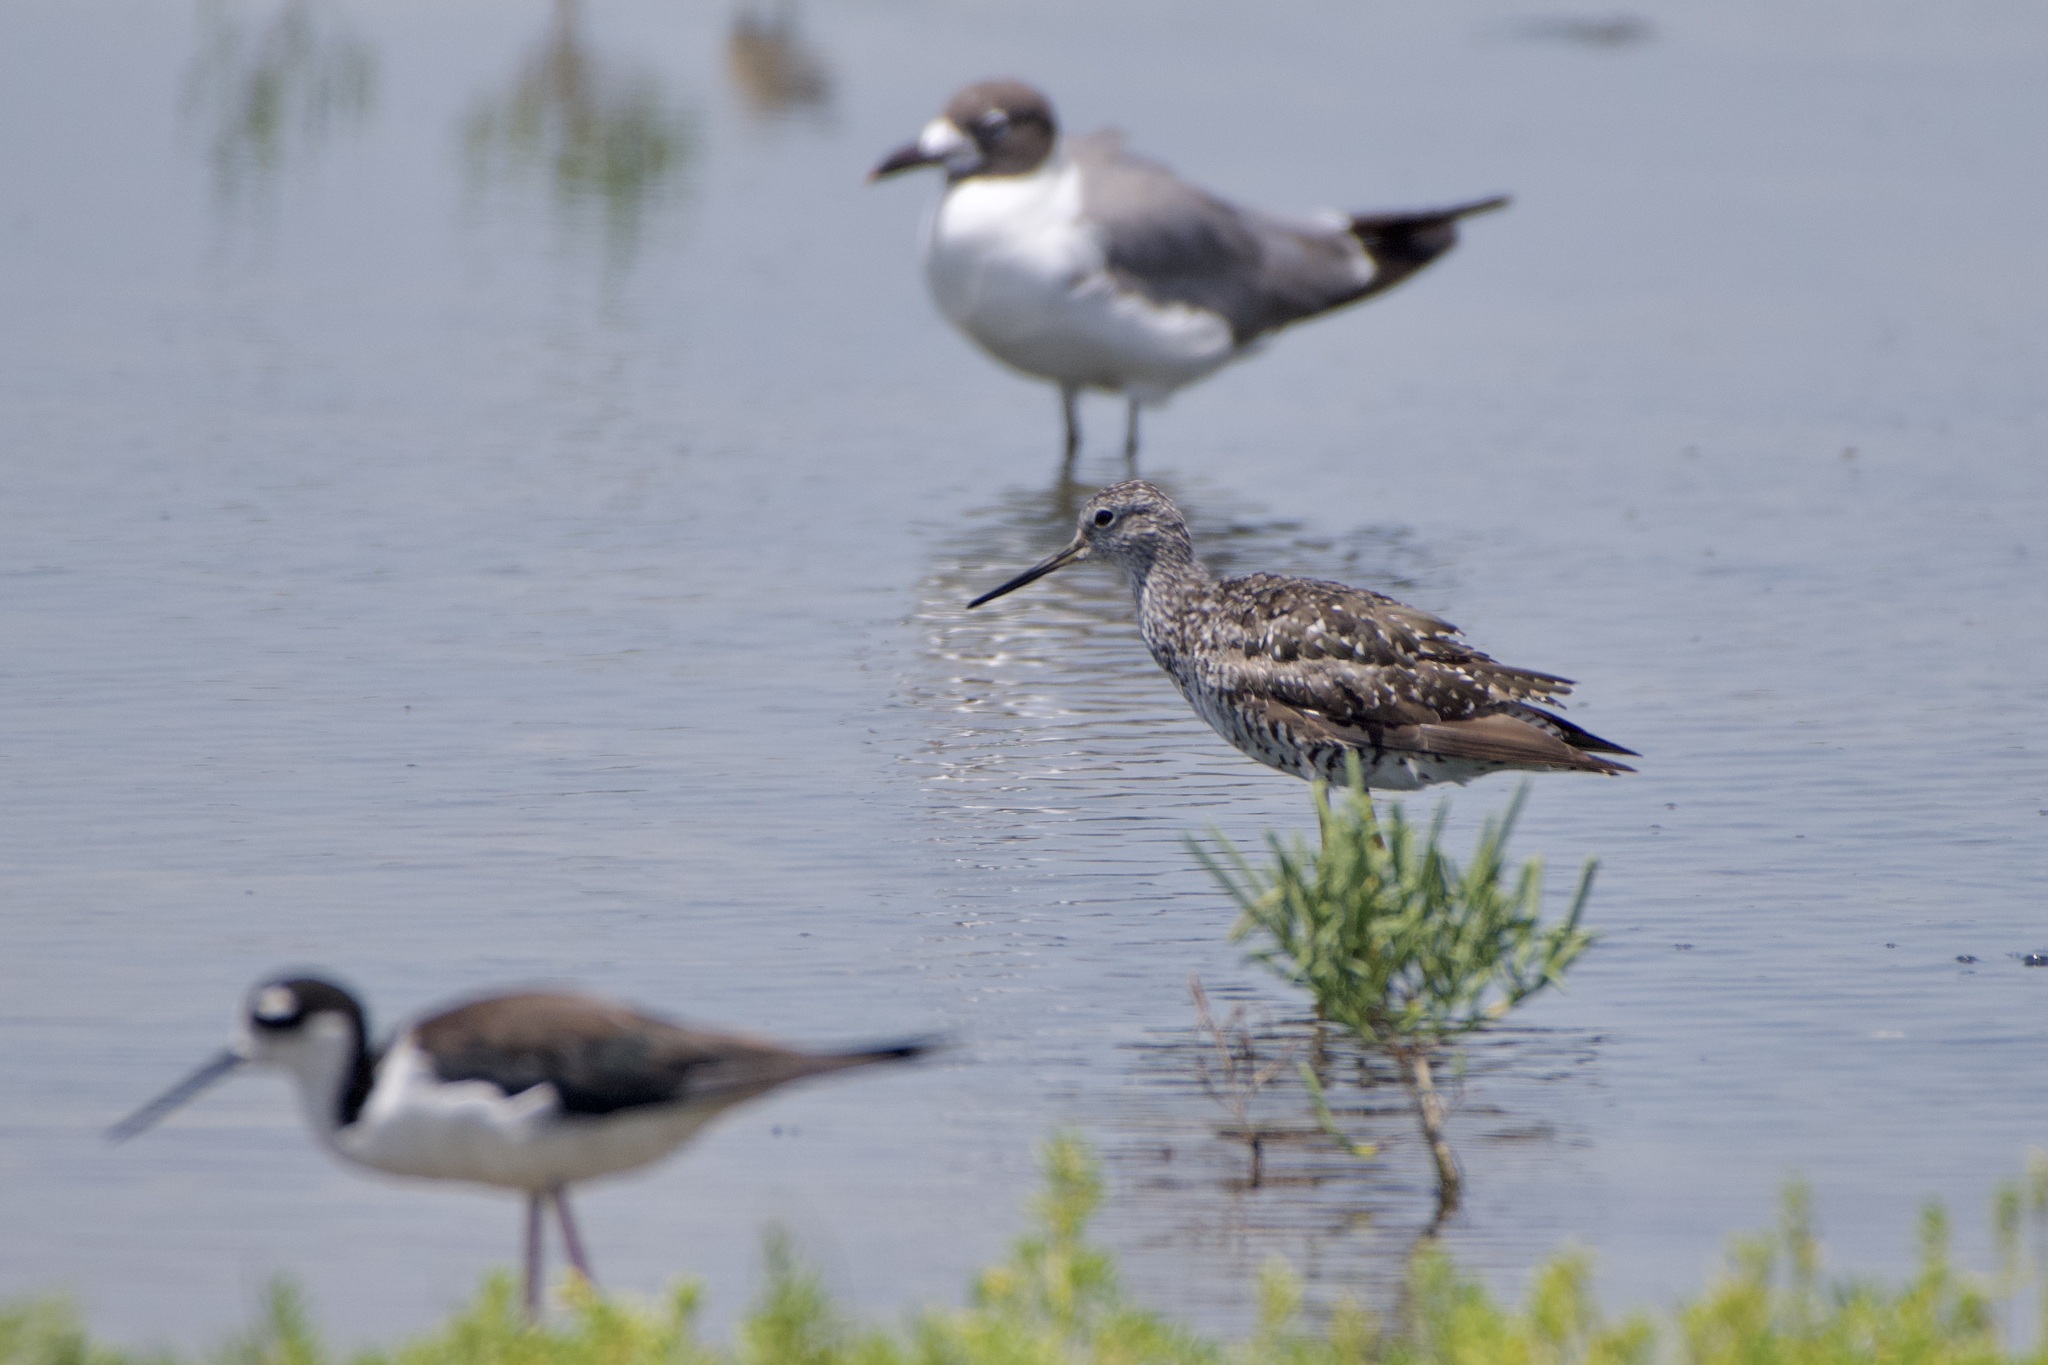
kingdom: Animalia
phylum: Chordata
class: Aves
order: Charadriiformes
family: Scolopacidae
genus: Tringa
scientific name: Tringa melanoleuca
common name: Greater yellowlegs
